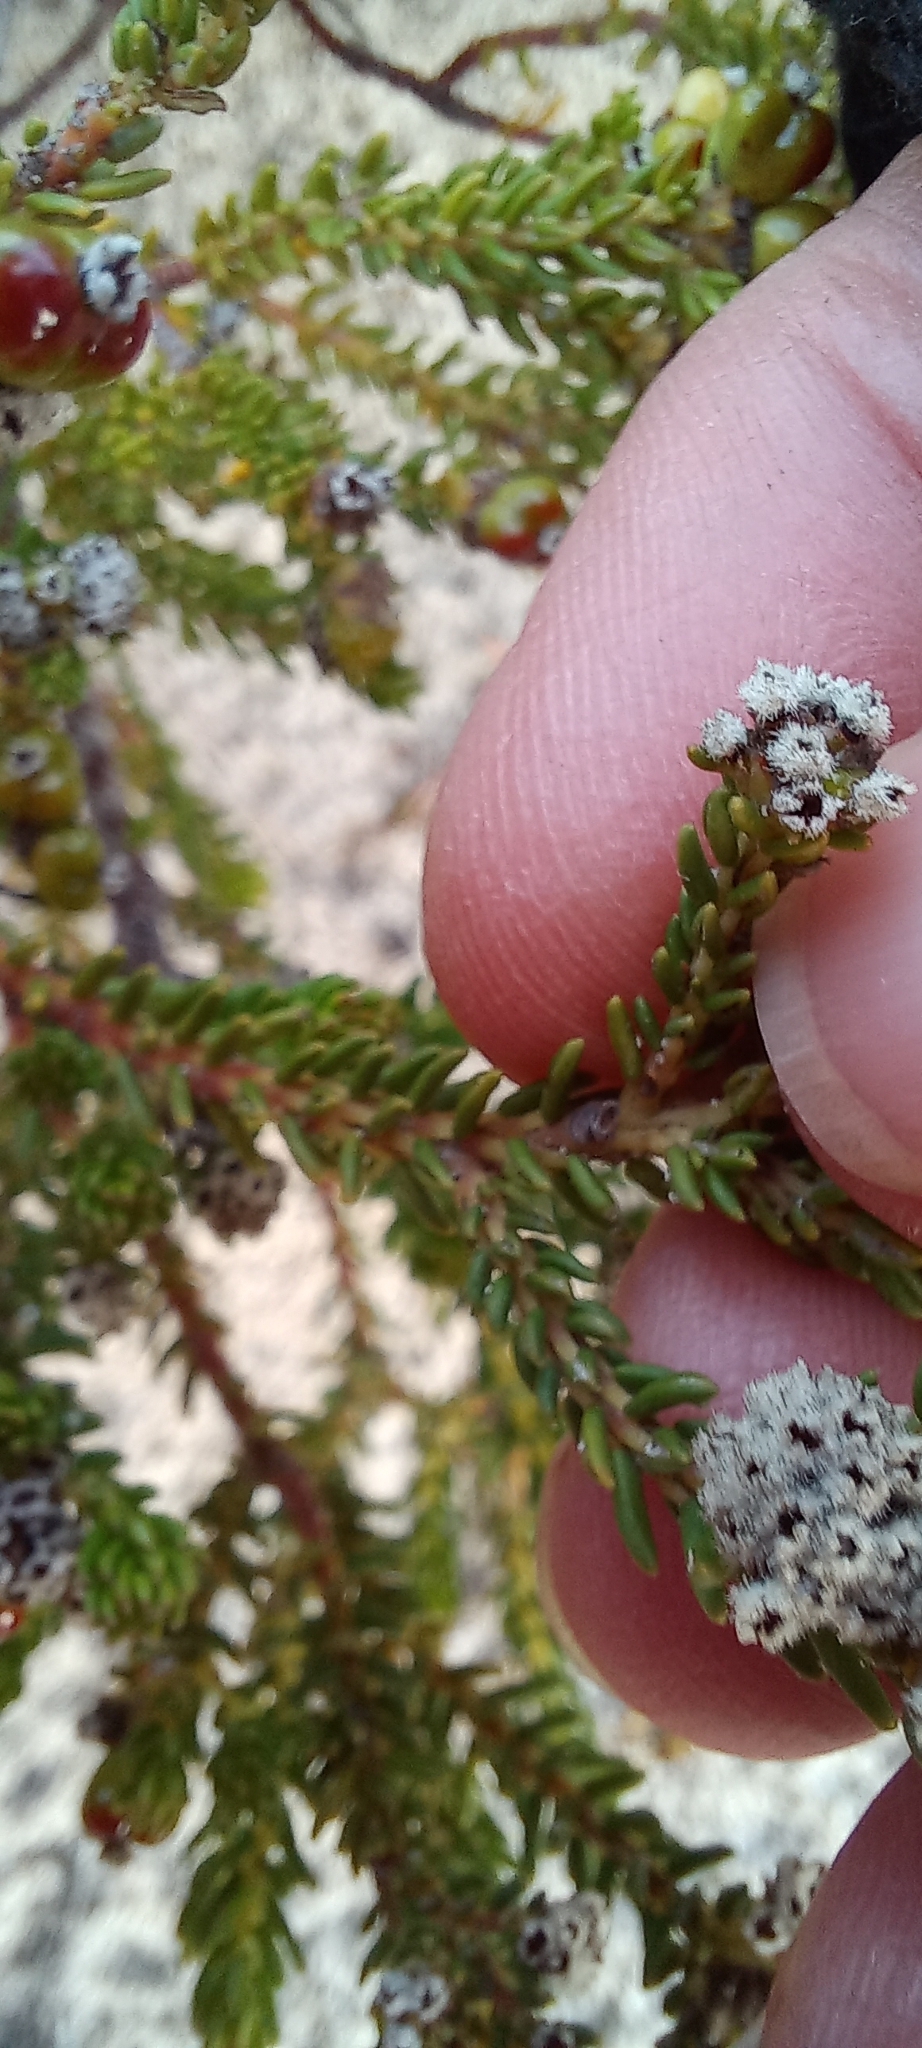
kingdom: Plantae
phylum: Tracheophyta
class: Magnoliopsida
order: Rosales
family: Rhamnaceae
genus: Phylica
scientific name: Phylica ericoides
